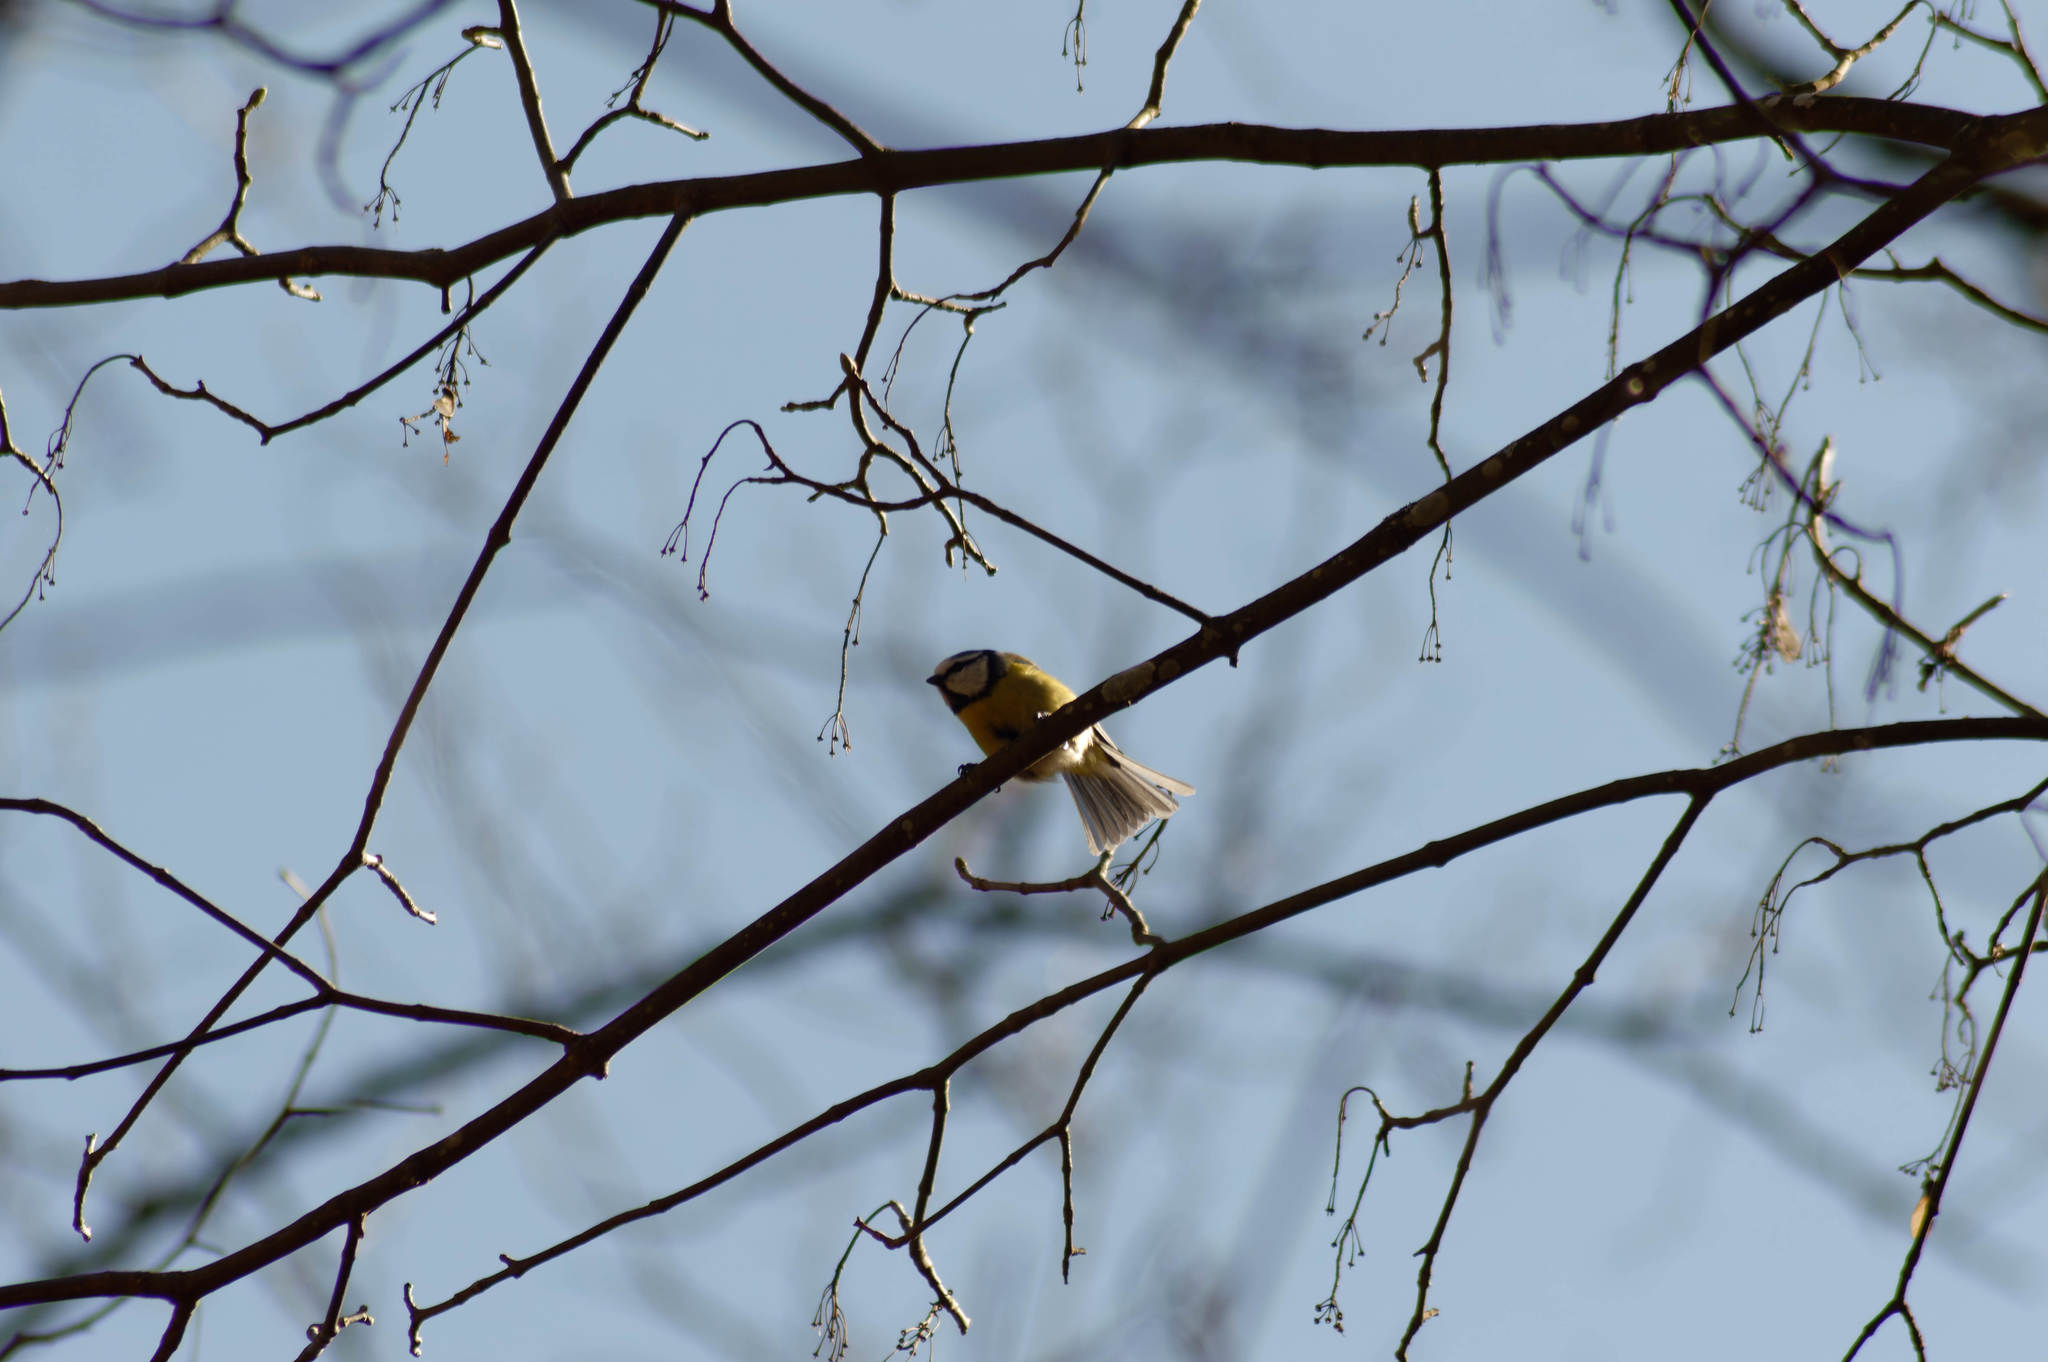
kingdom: Animalia
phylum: Chordata
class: Aves
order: Passeriformes
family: Paridae
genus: Cyanistes
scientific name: Cyanistes caeruleus
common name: Eurasian blue tit
